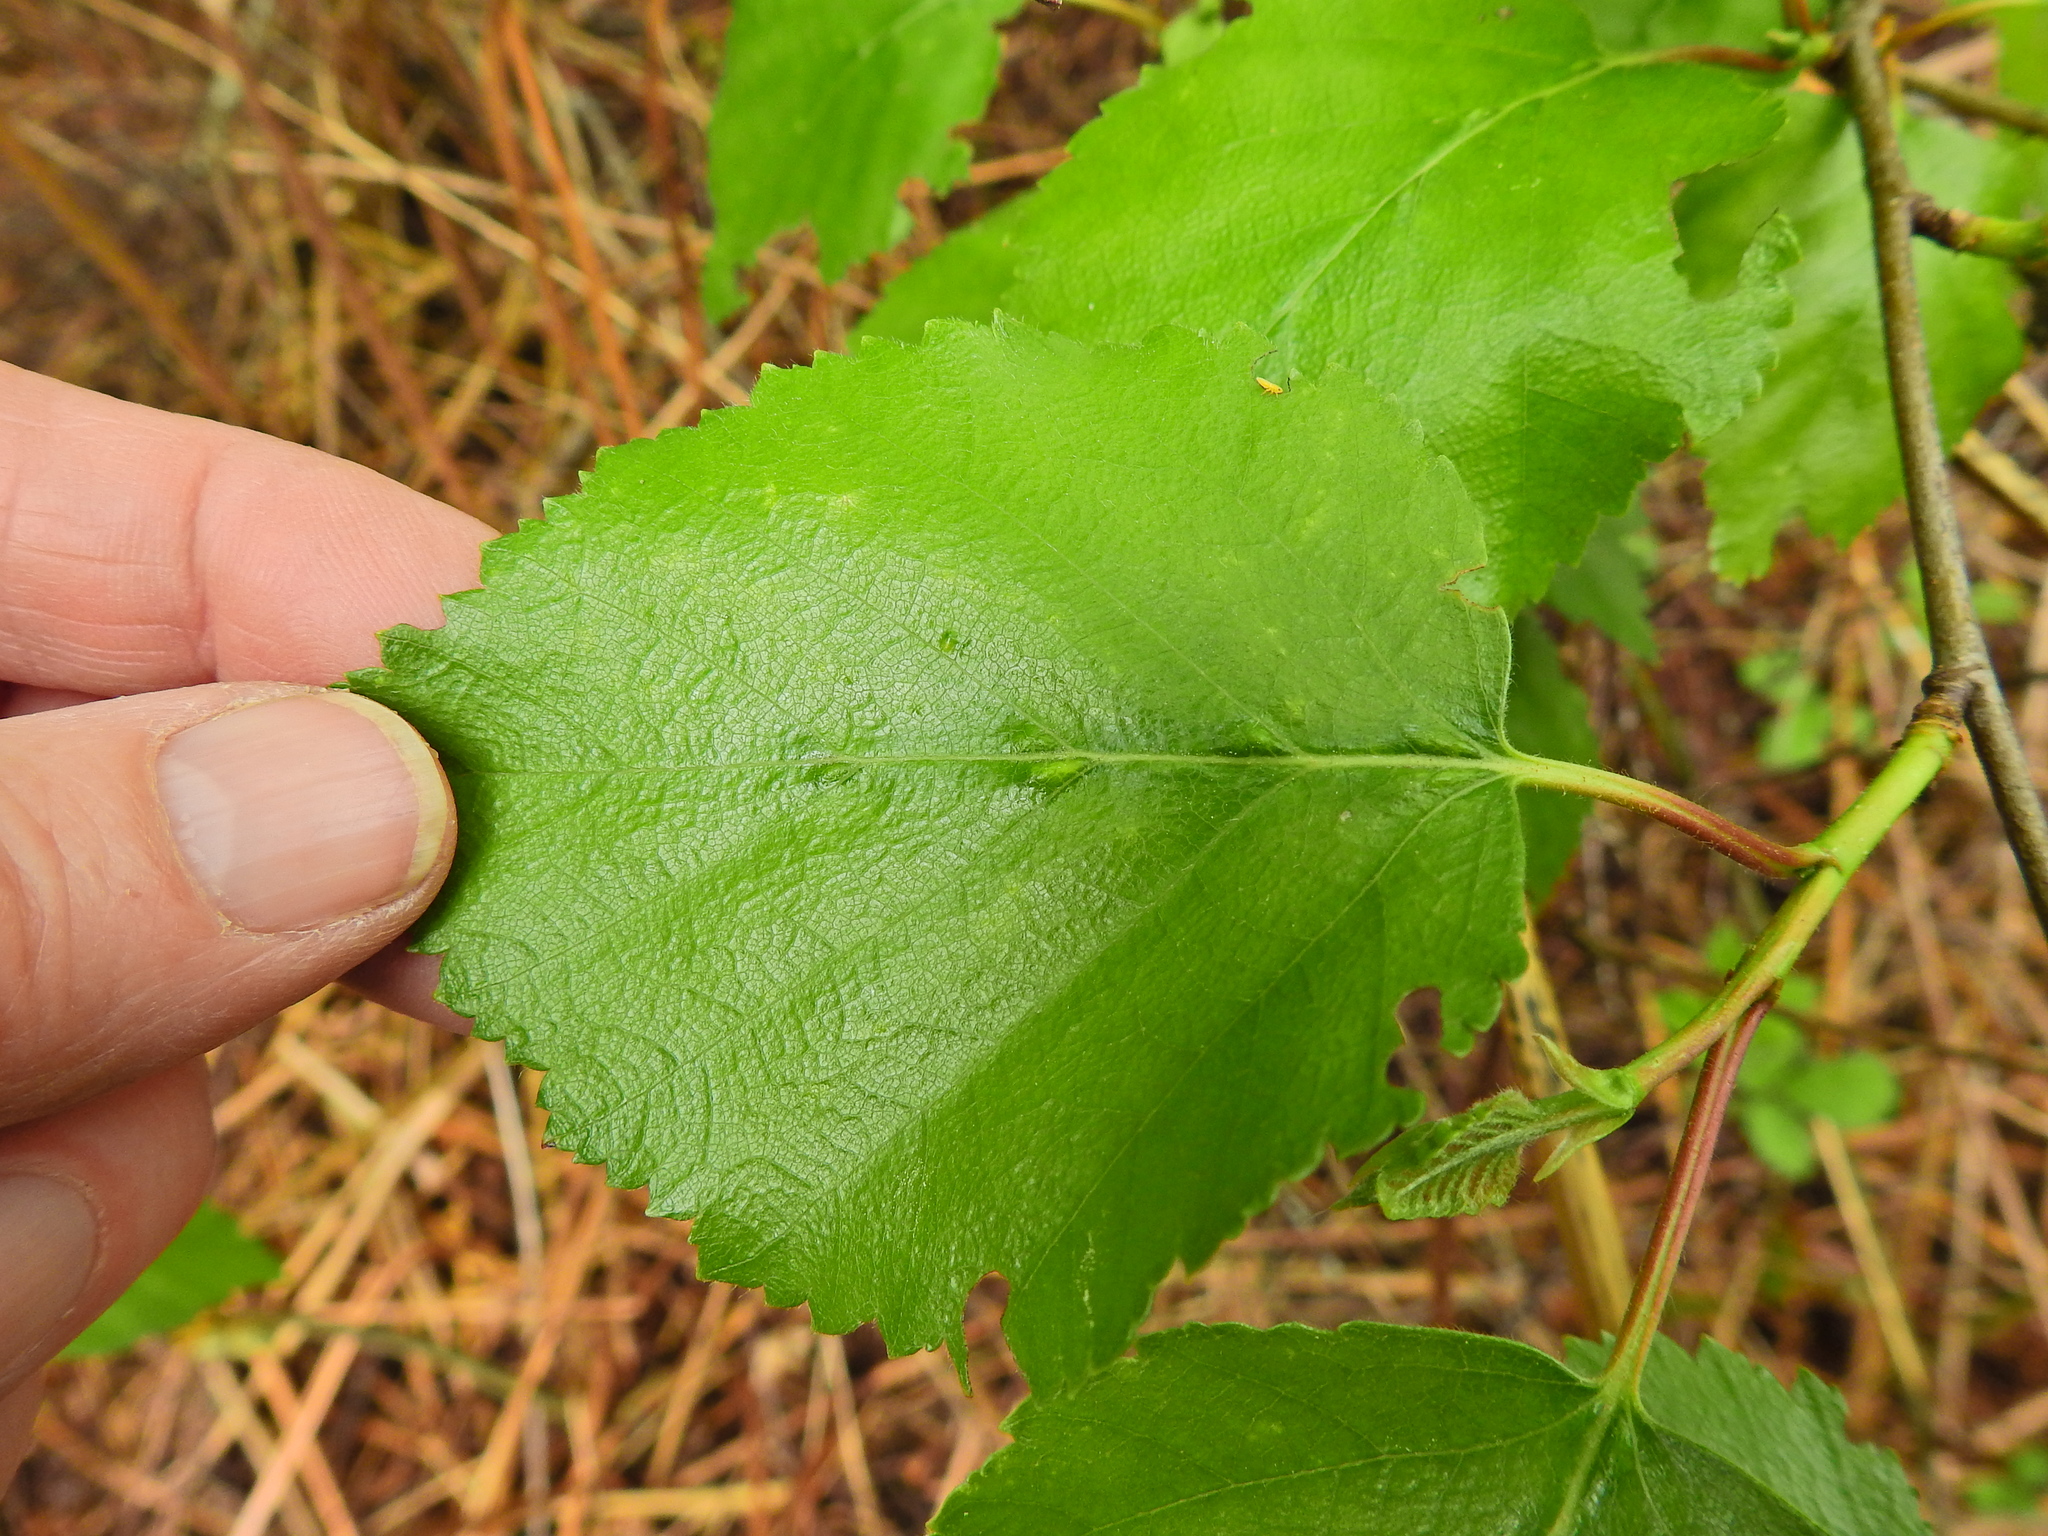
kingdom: Animalia
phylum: Arthropoda
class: Arachnida
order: Trombidiformes
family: Eriophyidae
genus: Aculus
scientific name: Aculus leionotus
